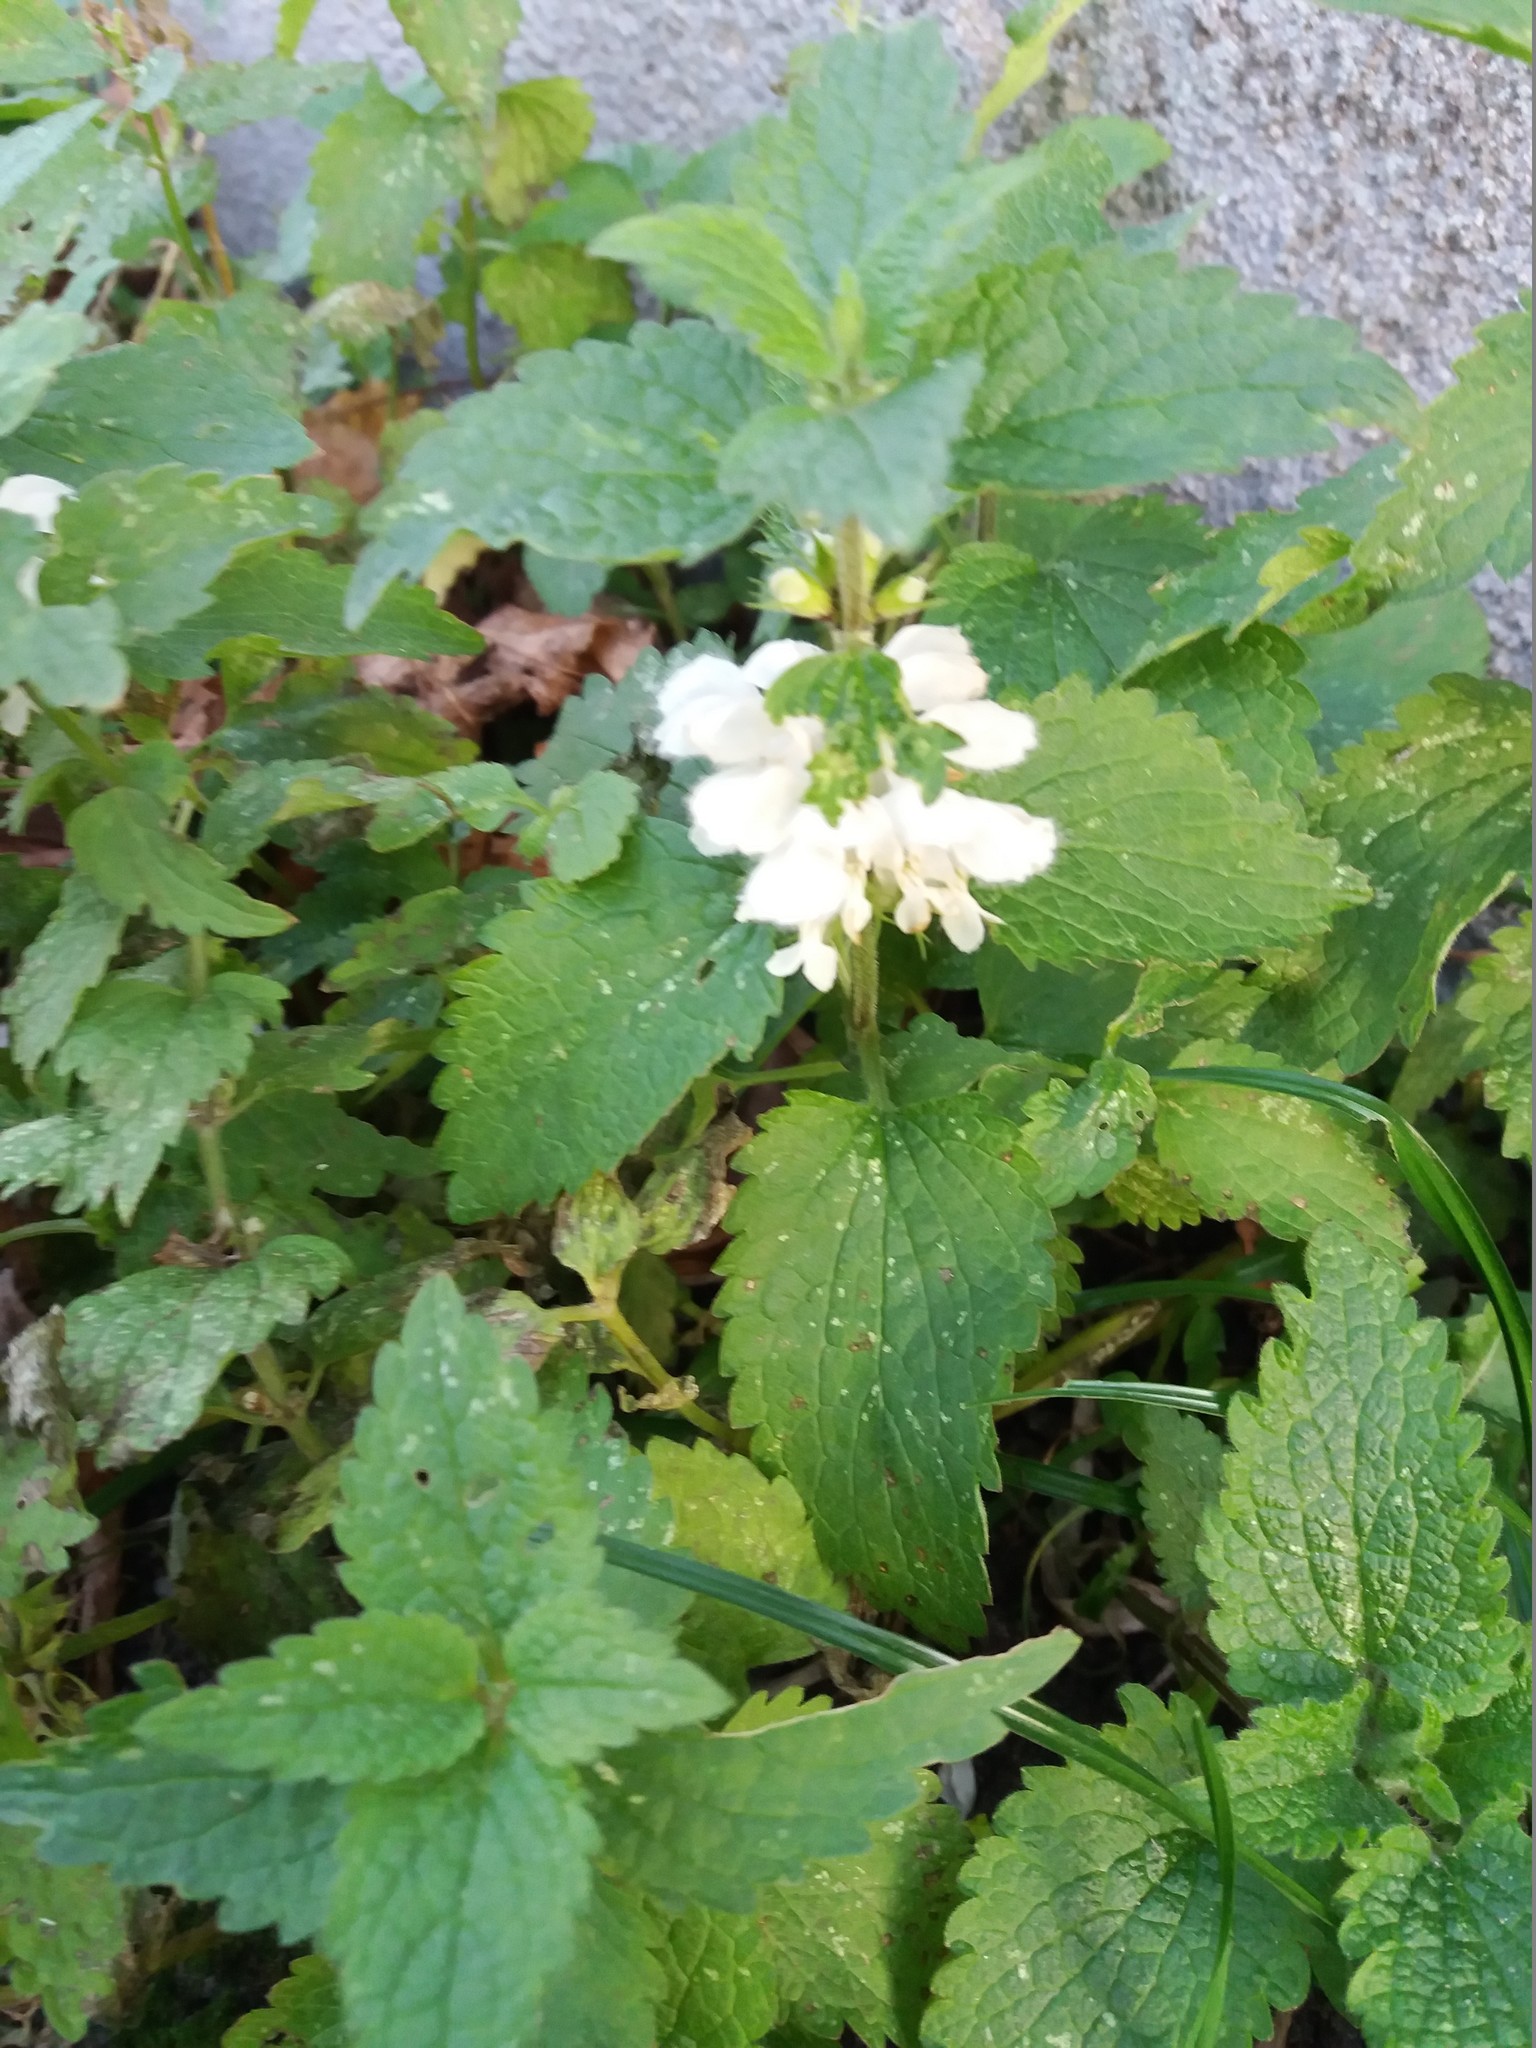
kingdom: Plantae
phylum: Tracheophyta
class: Magnoliopsida
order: Lamiales
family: Lamiaceae
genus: Lamium
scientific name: Lamium album
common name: White dead-nettle
